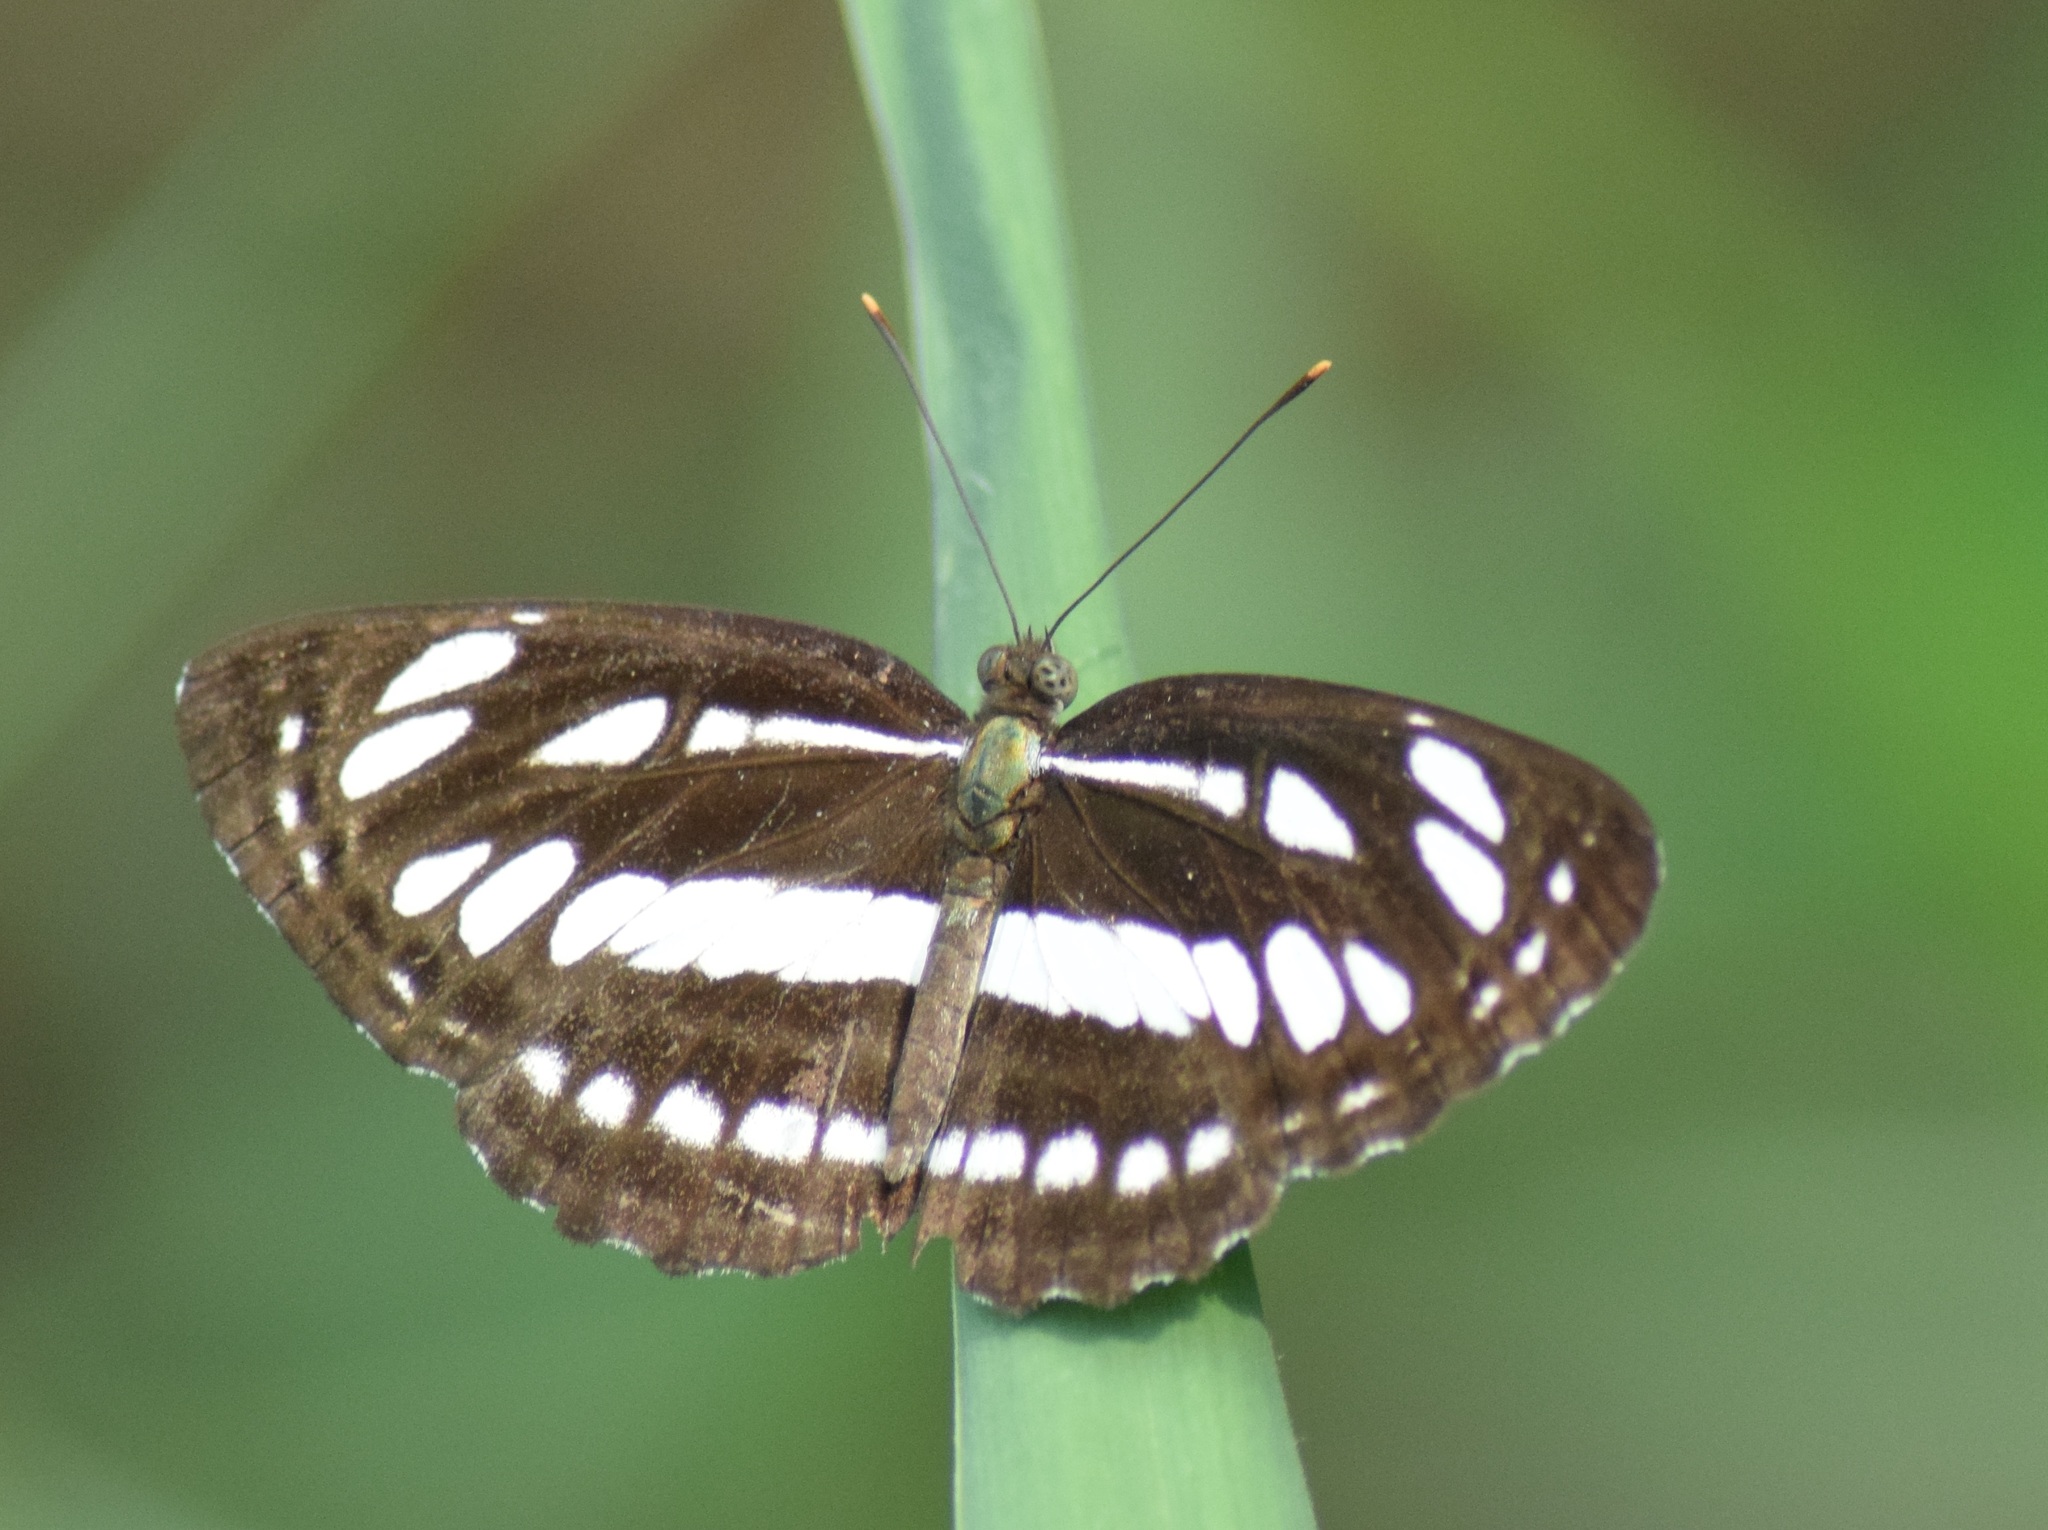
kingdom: Animalia
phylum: Arthropoda
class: Insecta
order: Lepidoptera
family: Nymphalidae
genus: Neptis
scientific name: Neptis hylas
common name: Common sailer
